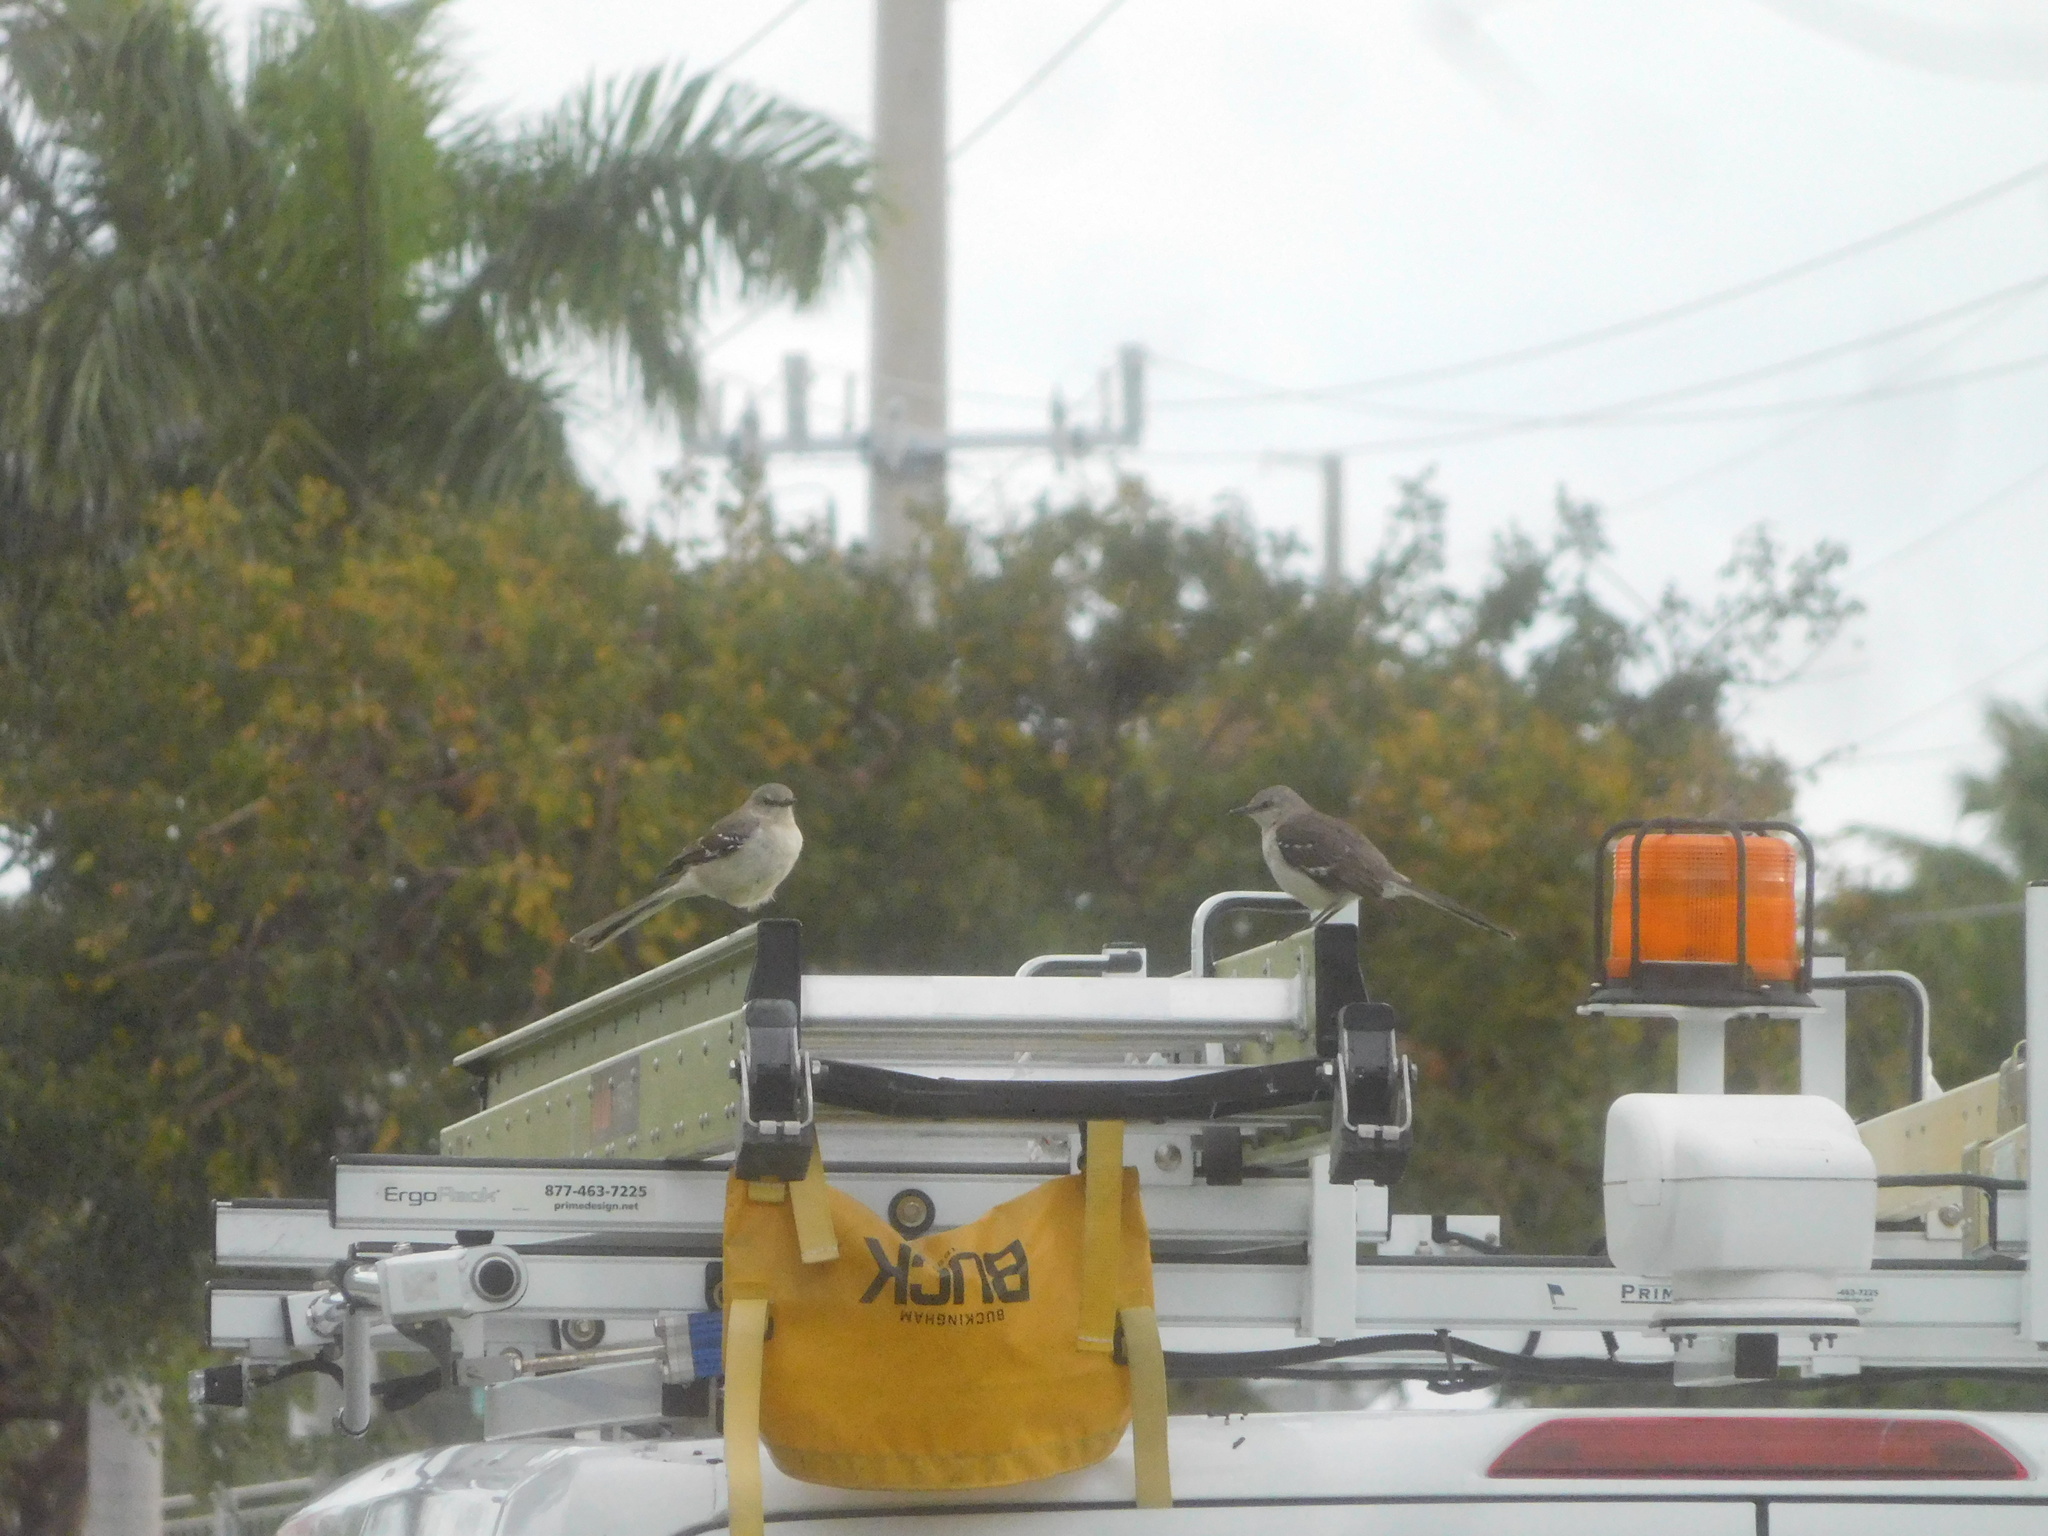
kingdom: Animalia
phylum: Chordata
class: Aves
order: Passeriformes
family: Mimidae
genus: Mimus
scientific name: Mimus polyglottos
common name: Northern mockingbird
